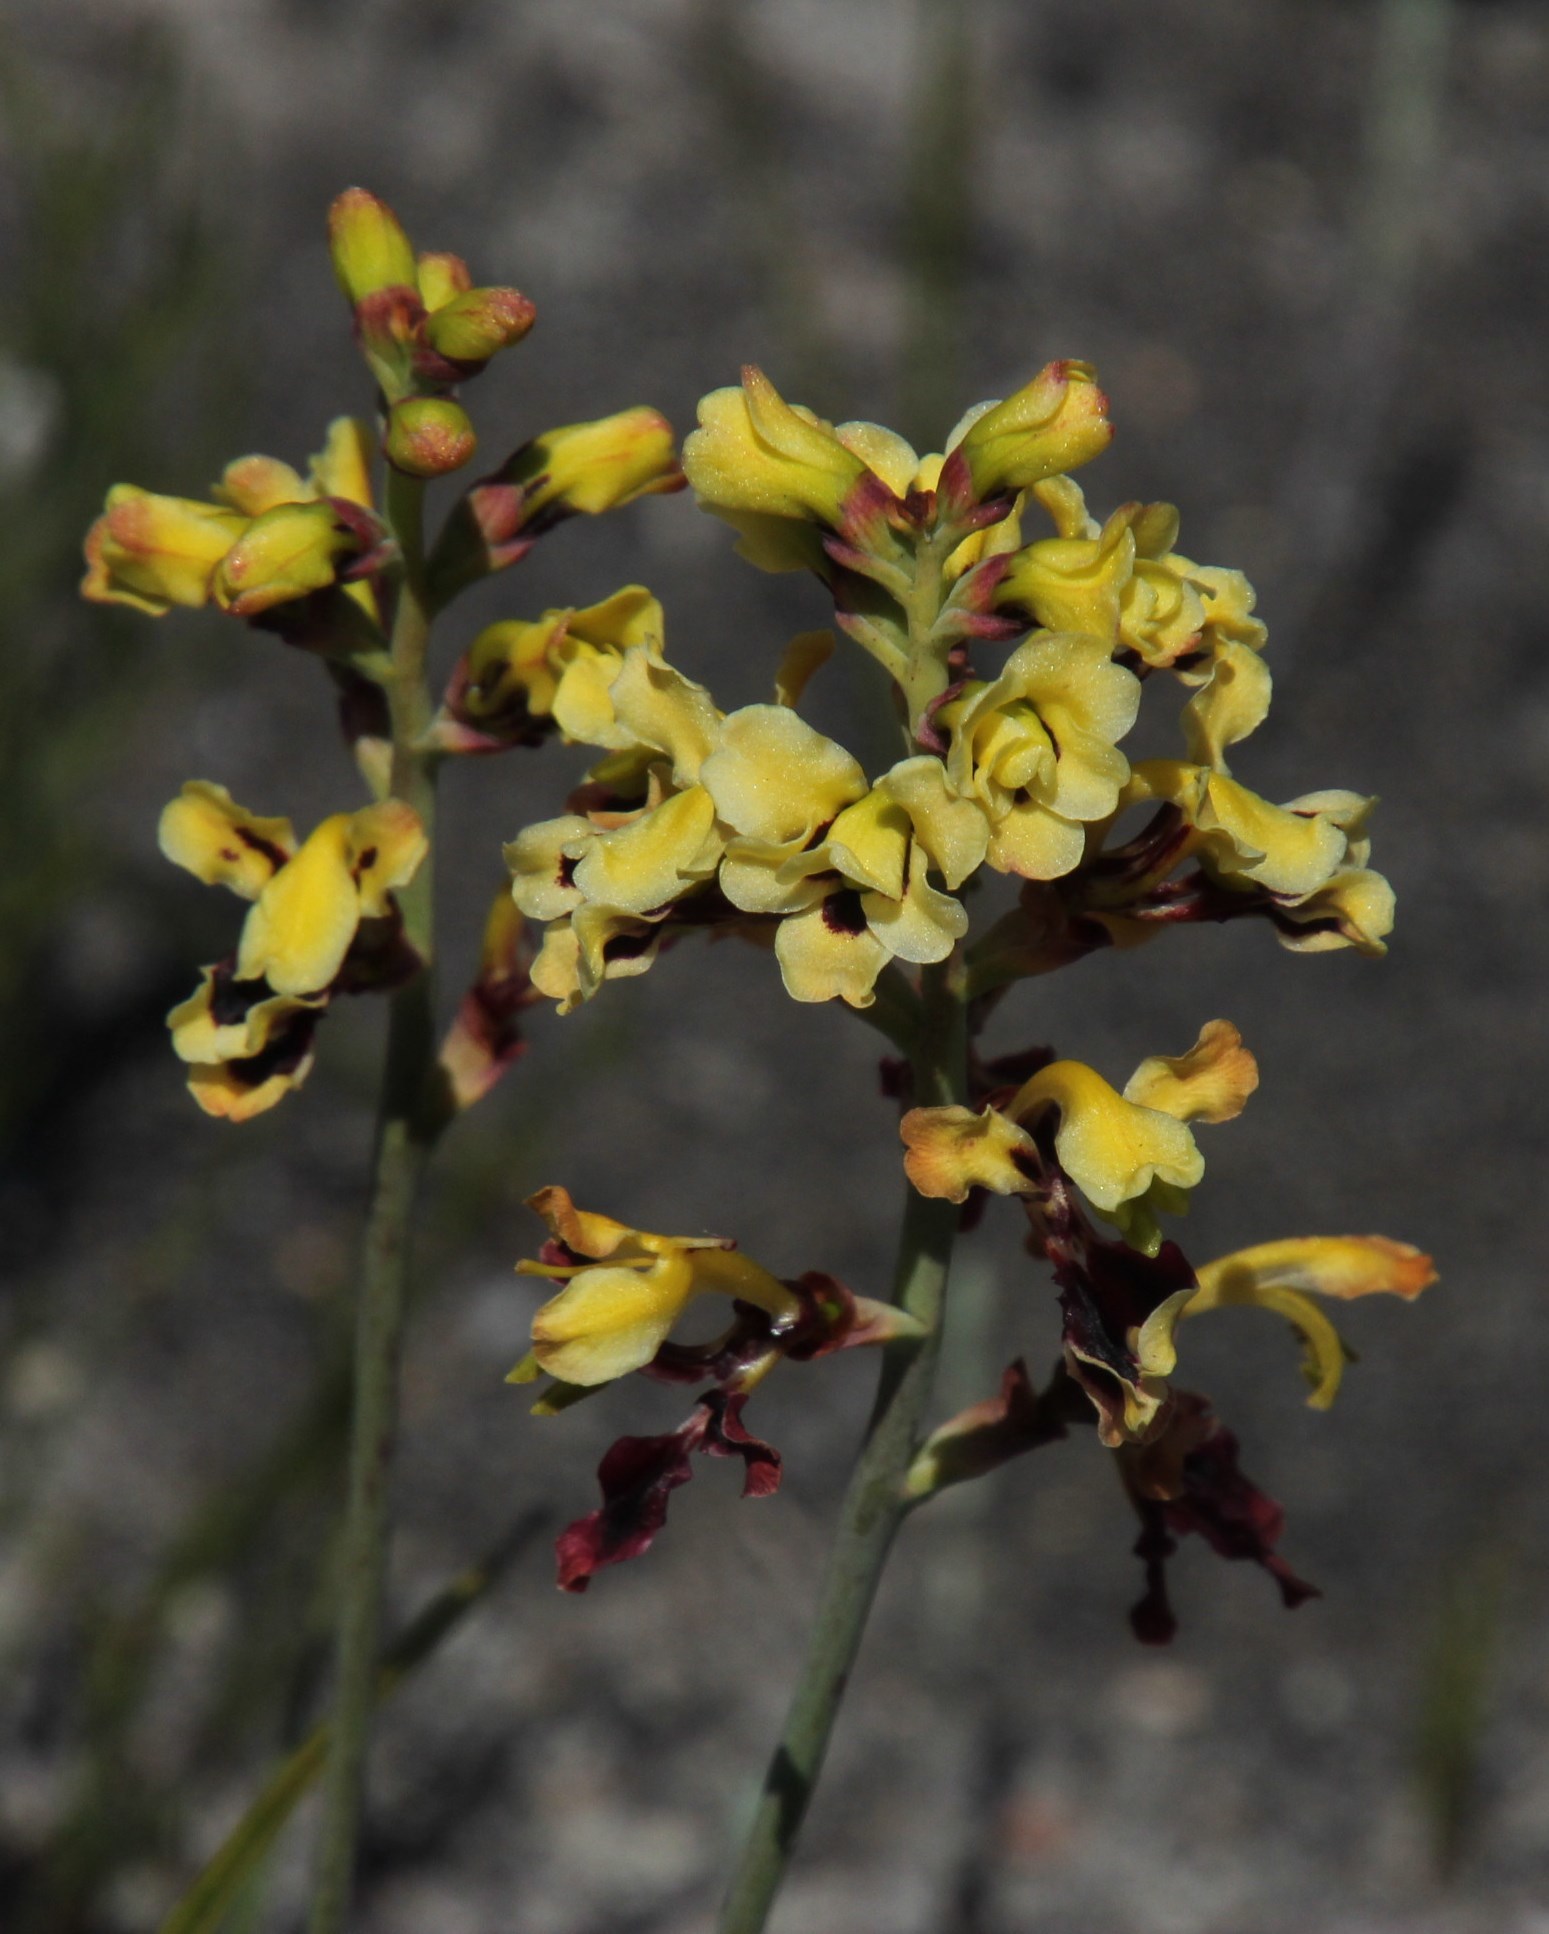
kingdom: Plantae
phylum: Tracheophyta
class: Liliopsida
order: Asparagales
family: Iridaceae
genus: Tritoniopsis
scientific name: Tritoniopsis parviflora
